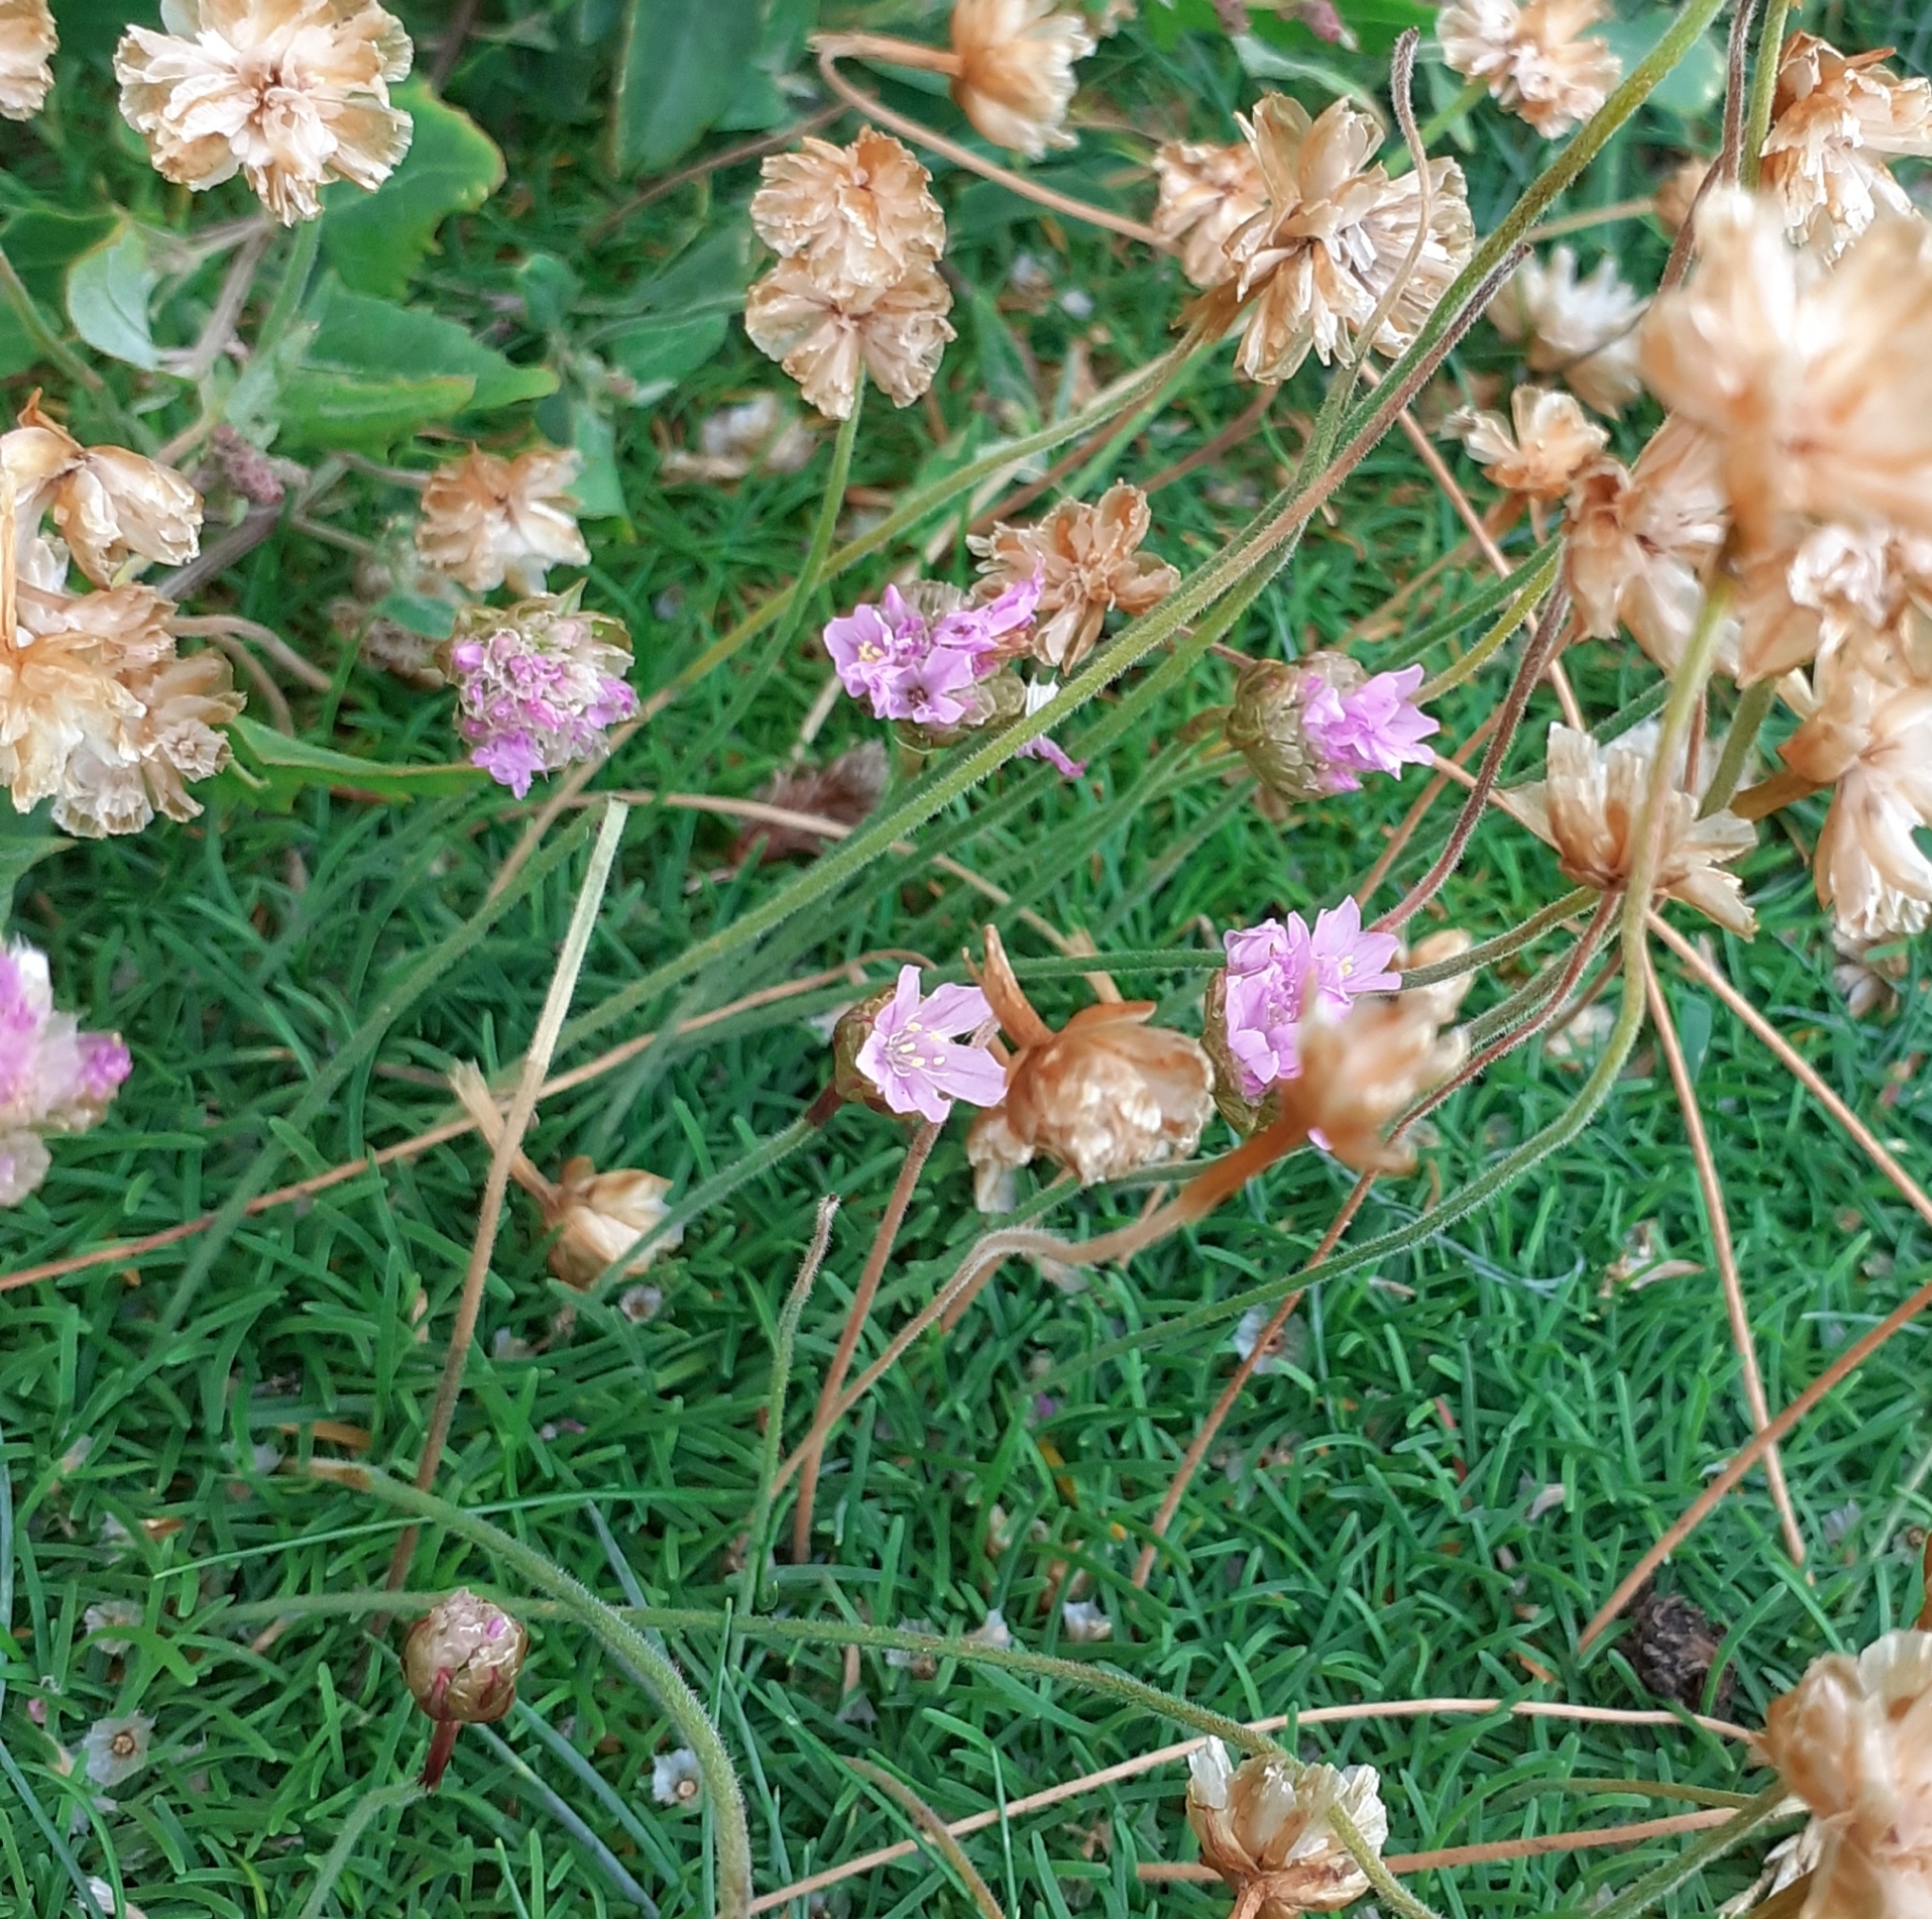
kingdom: Plantae
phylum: Tracheophyta
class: Magnoliopsida
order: Caryophyllales
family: Plumbaginaceae
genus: Armeria
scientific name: Armeria maritima
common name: Thrift
